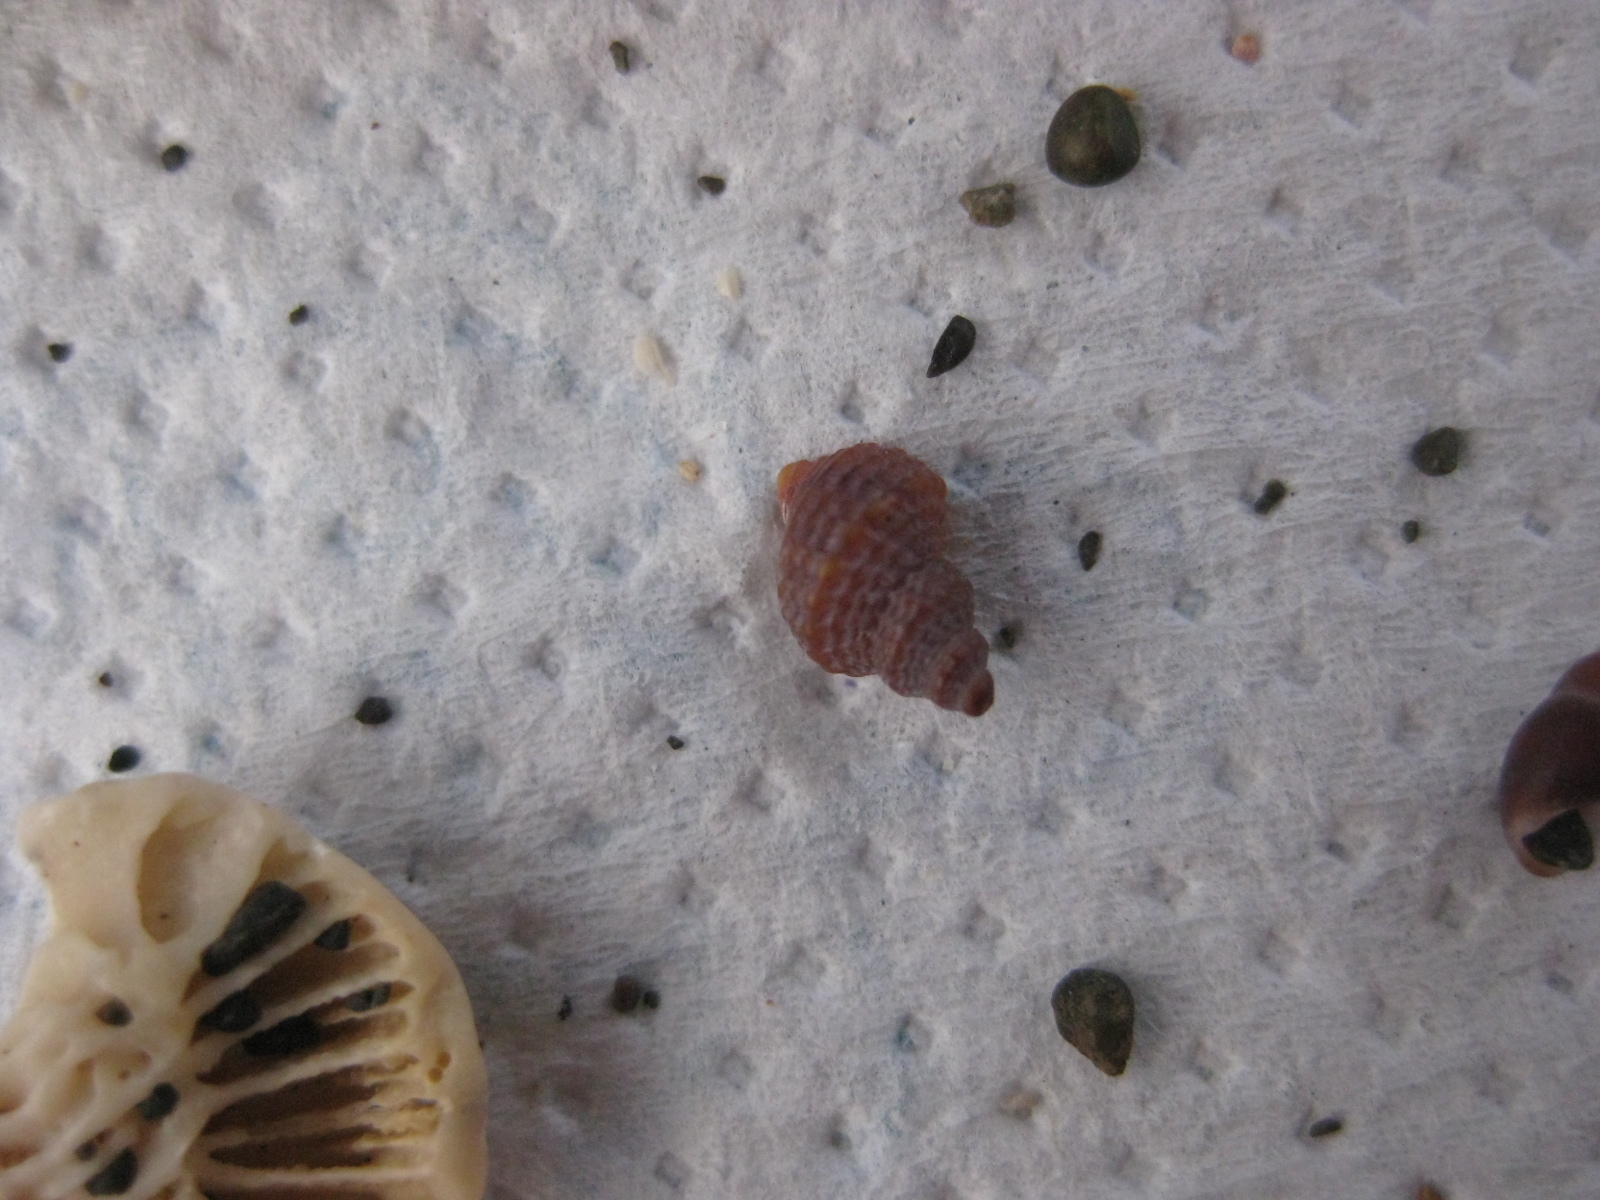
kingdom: Animalia
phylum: Mollusca
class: Gastropoda
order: Littorinimorpha
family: Capulidae
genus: Trichosirius
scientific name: Trichosirius inornatus
